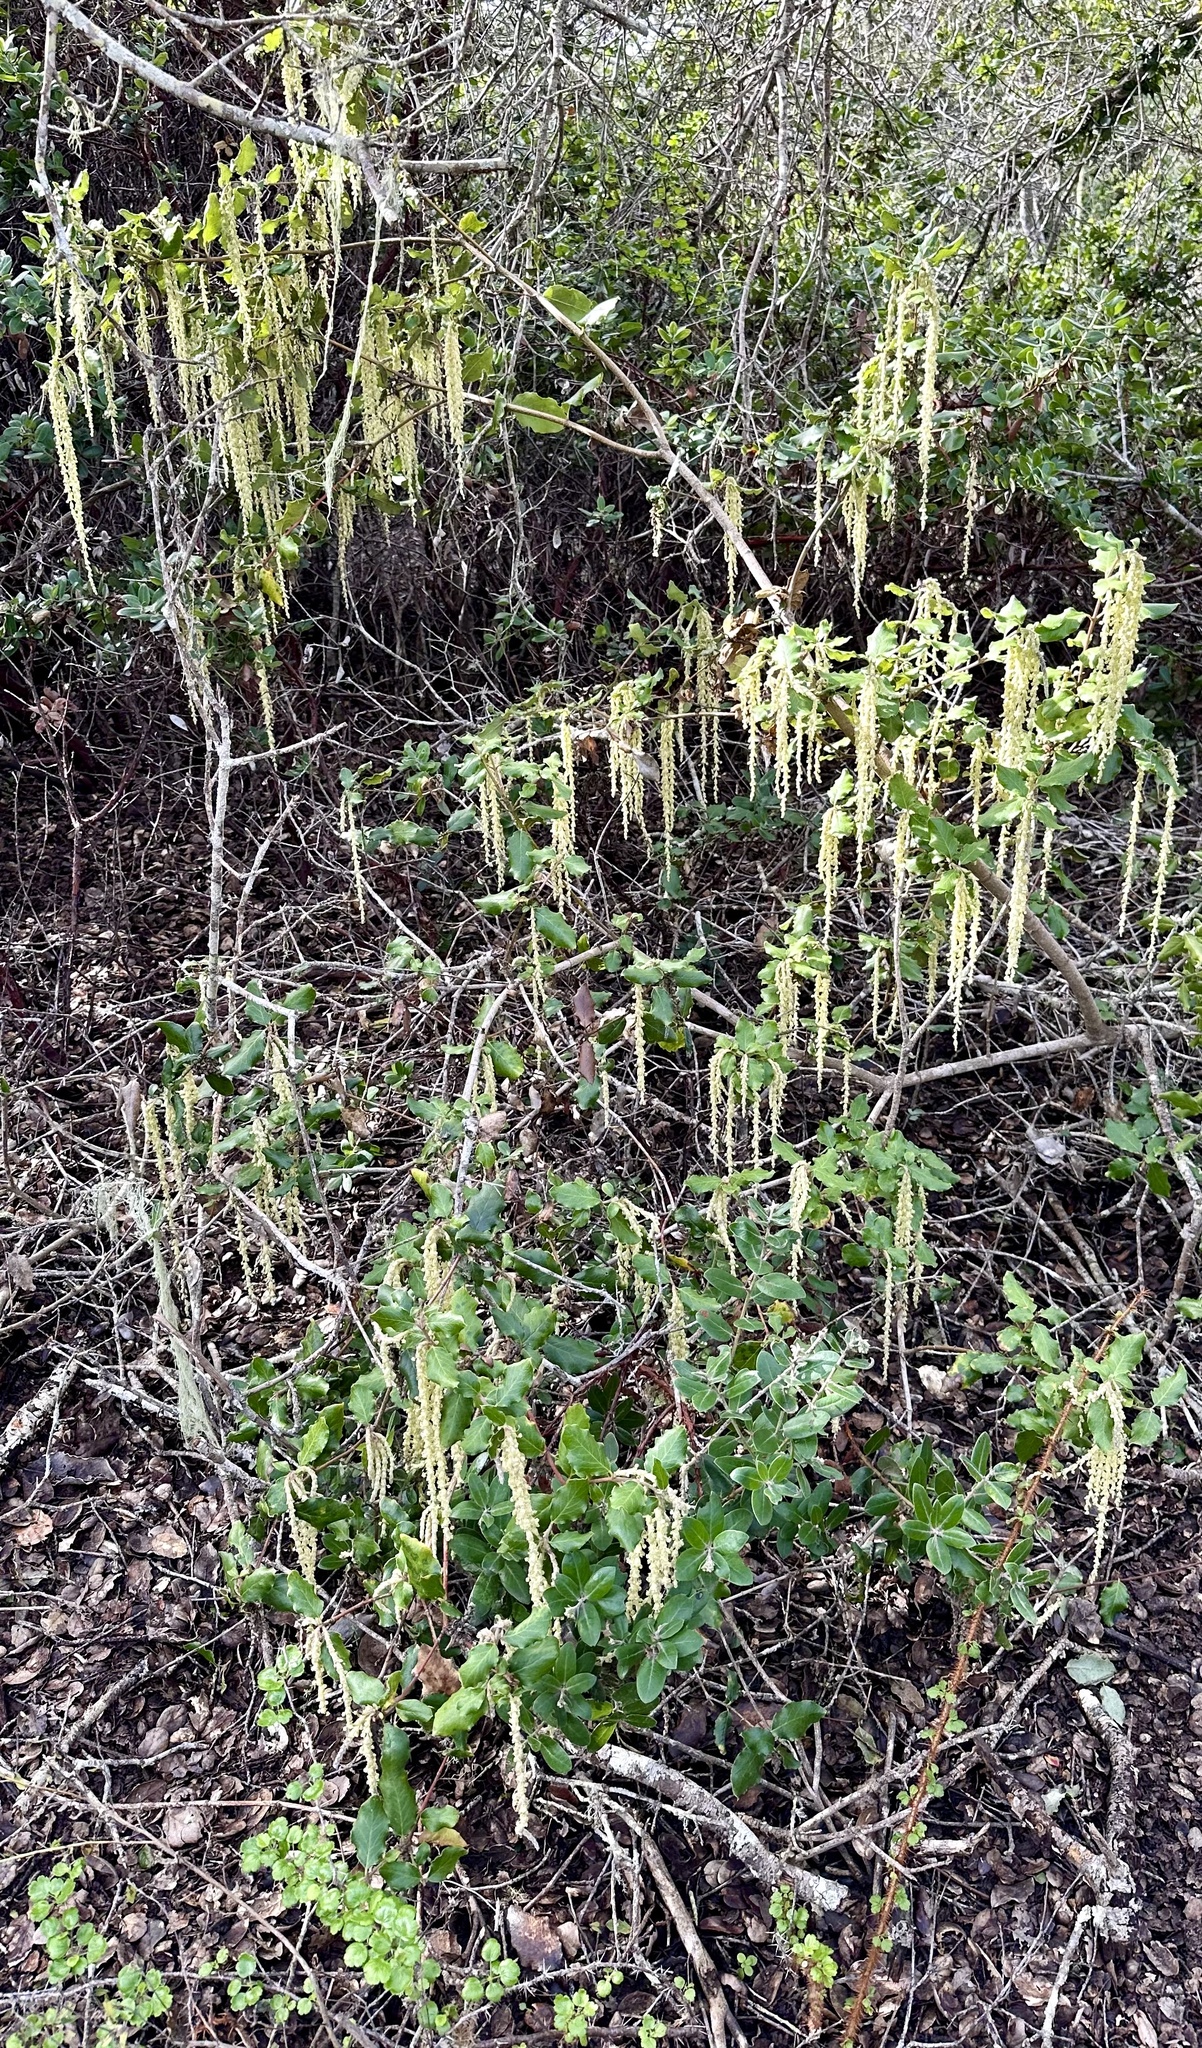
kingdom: Plantae
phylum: Tracheophyta
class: Magnoliopsida
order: Garryales
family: Garryaceae
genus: Garrya
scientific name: Garrya elliptica
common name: Silk-tassel
